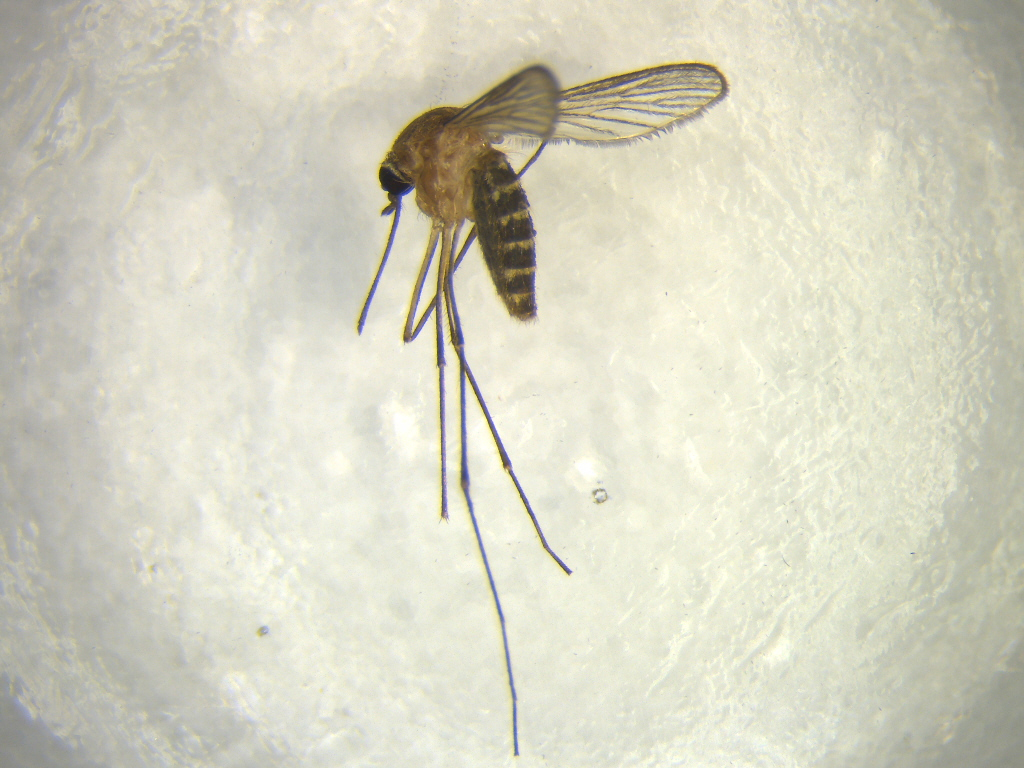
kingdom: Animalia
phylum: Arthropoda
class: Insecta
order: Diptera
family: Culicidae
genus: Culex
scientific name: Culex quinquefasciatus
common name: Southern house mosquito
